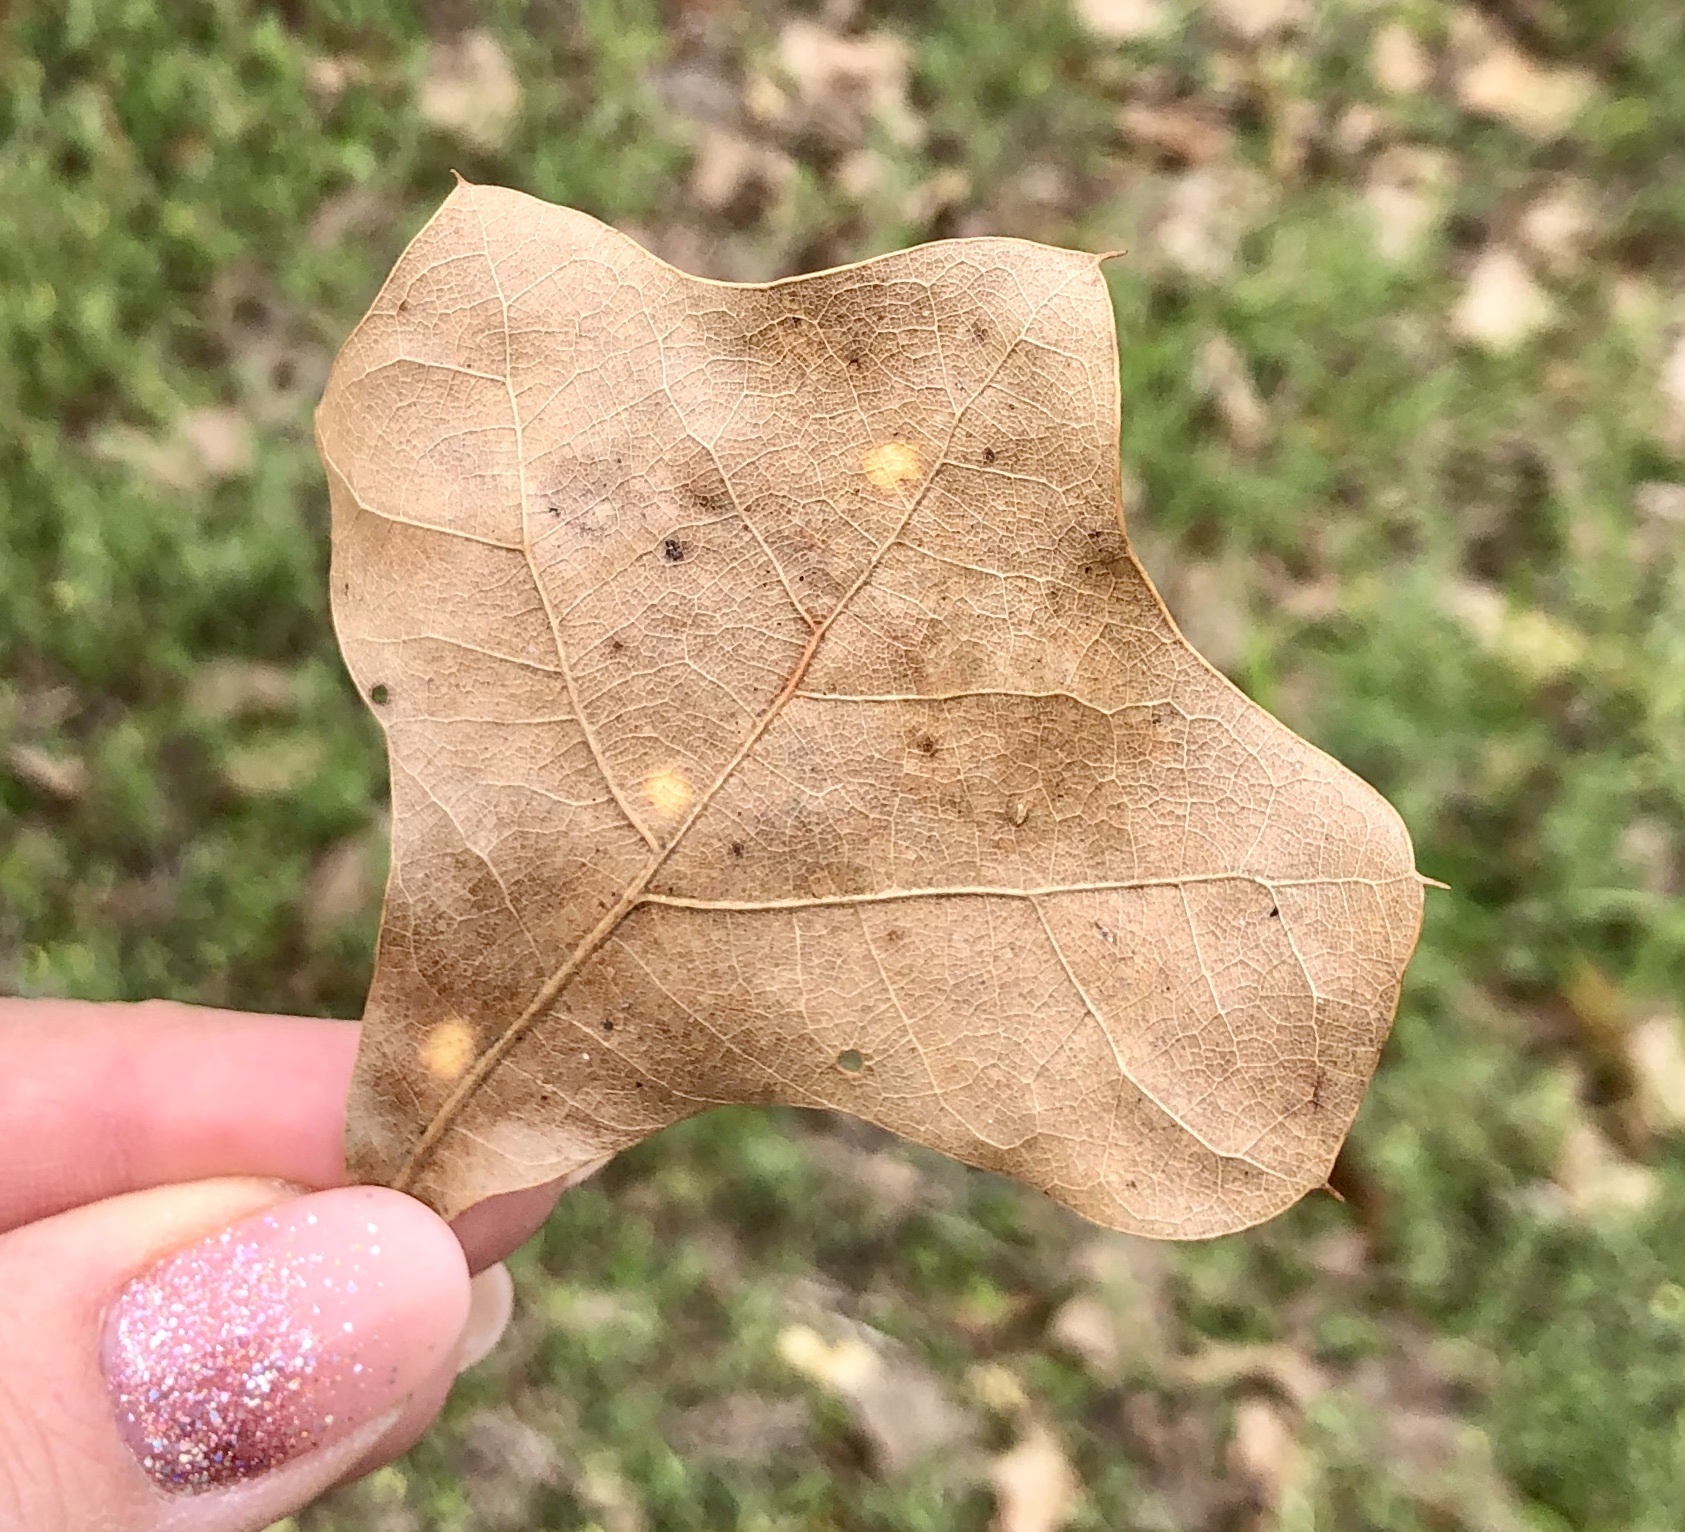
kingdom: Plantae
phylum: Tracheophyta
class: Magnoliopsida
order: Fagales
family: Fagaceae
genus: Quercus
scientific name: Quercus marilandica
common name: Blackjack oak
